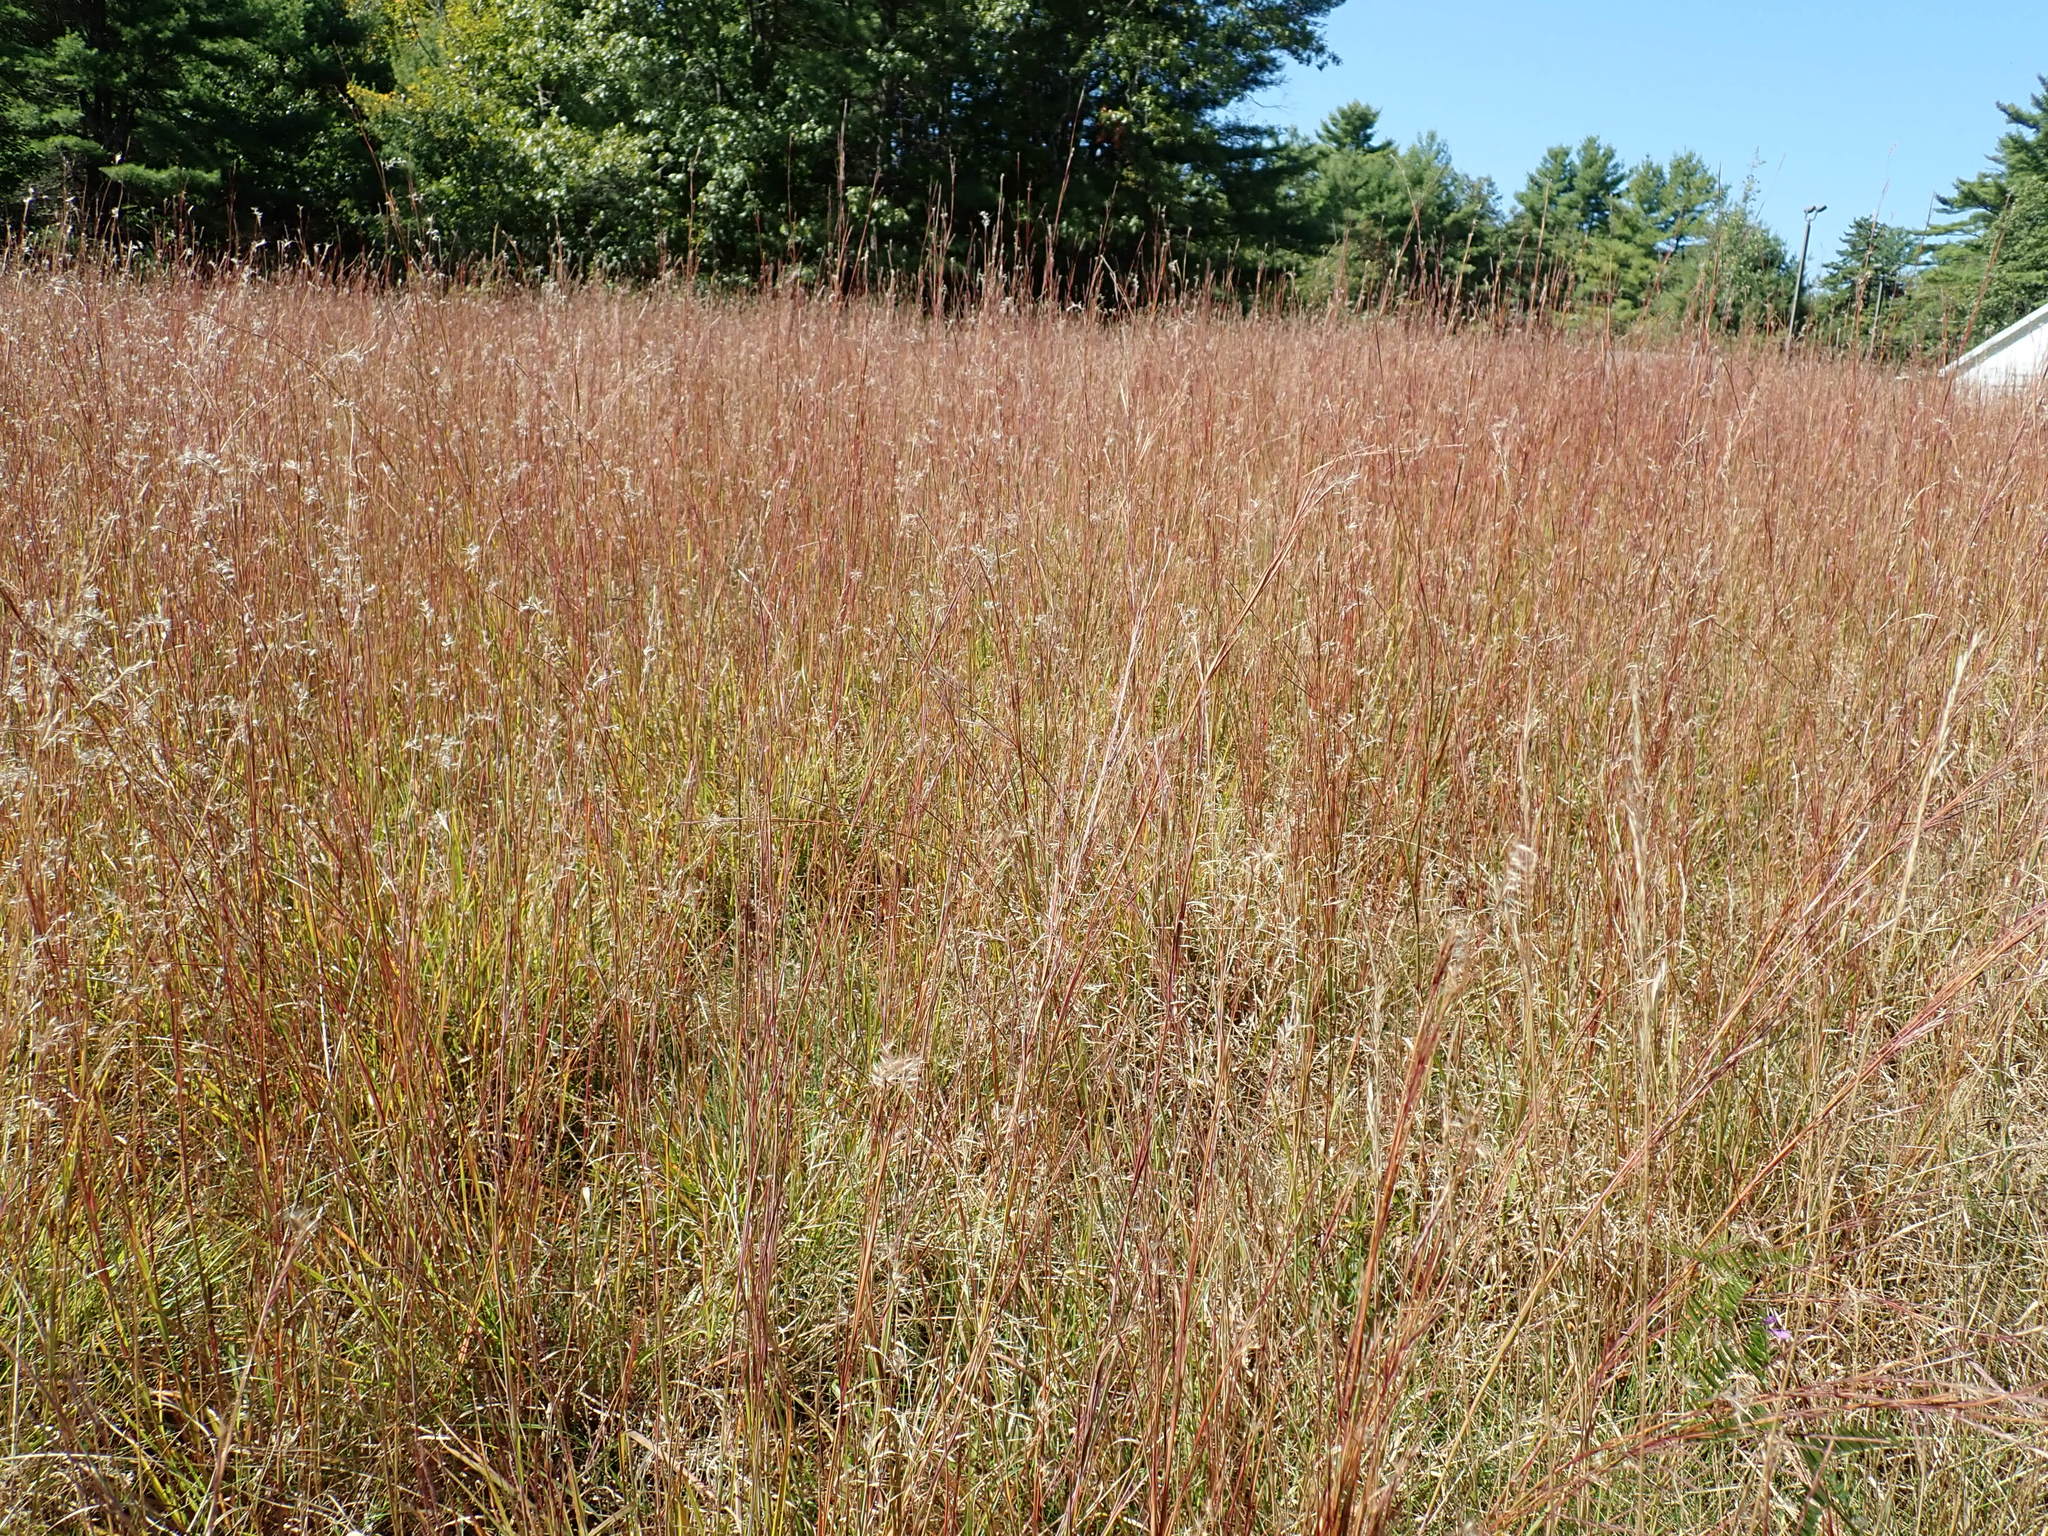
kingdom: Plantae
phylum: Tracheophyta
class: Liliopsida
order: Poales
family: Poaceae
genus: Schizachyrium
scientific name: Schizachyrium scoparium
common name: Little bluestem
